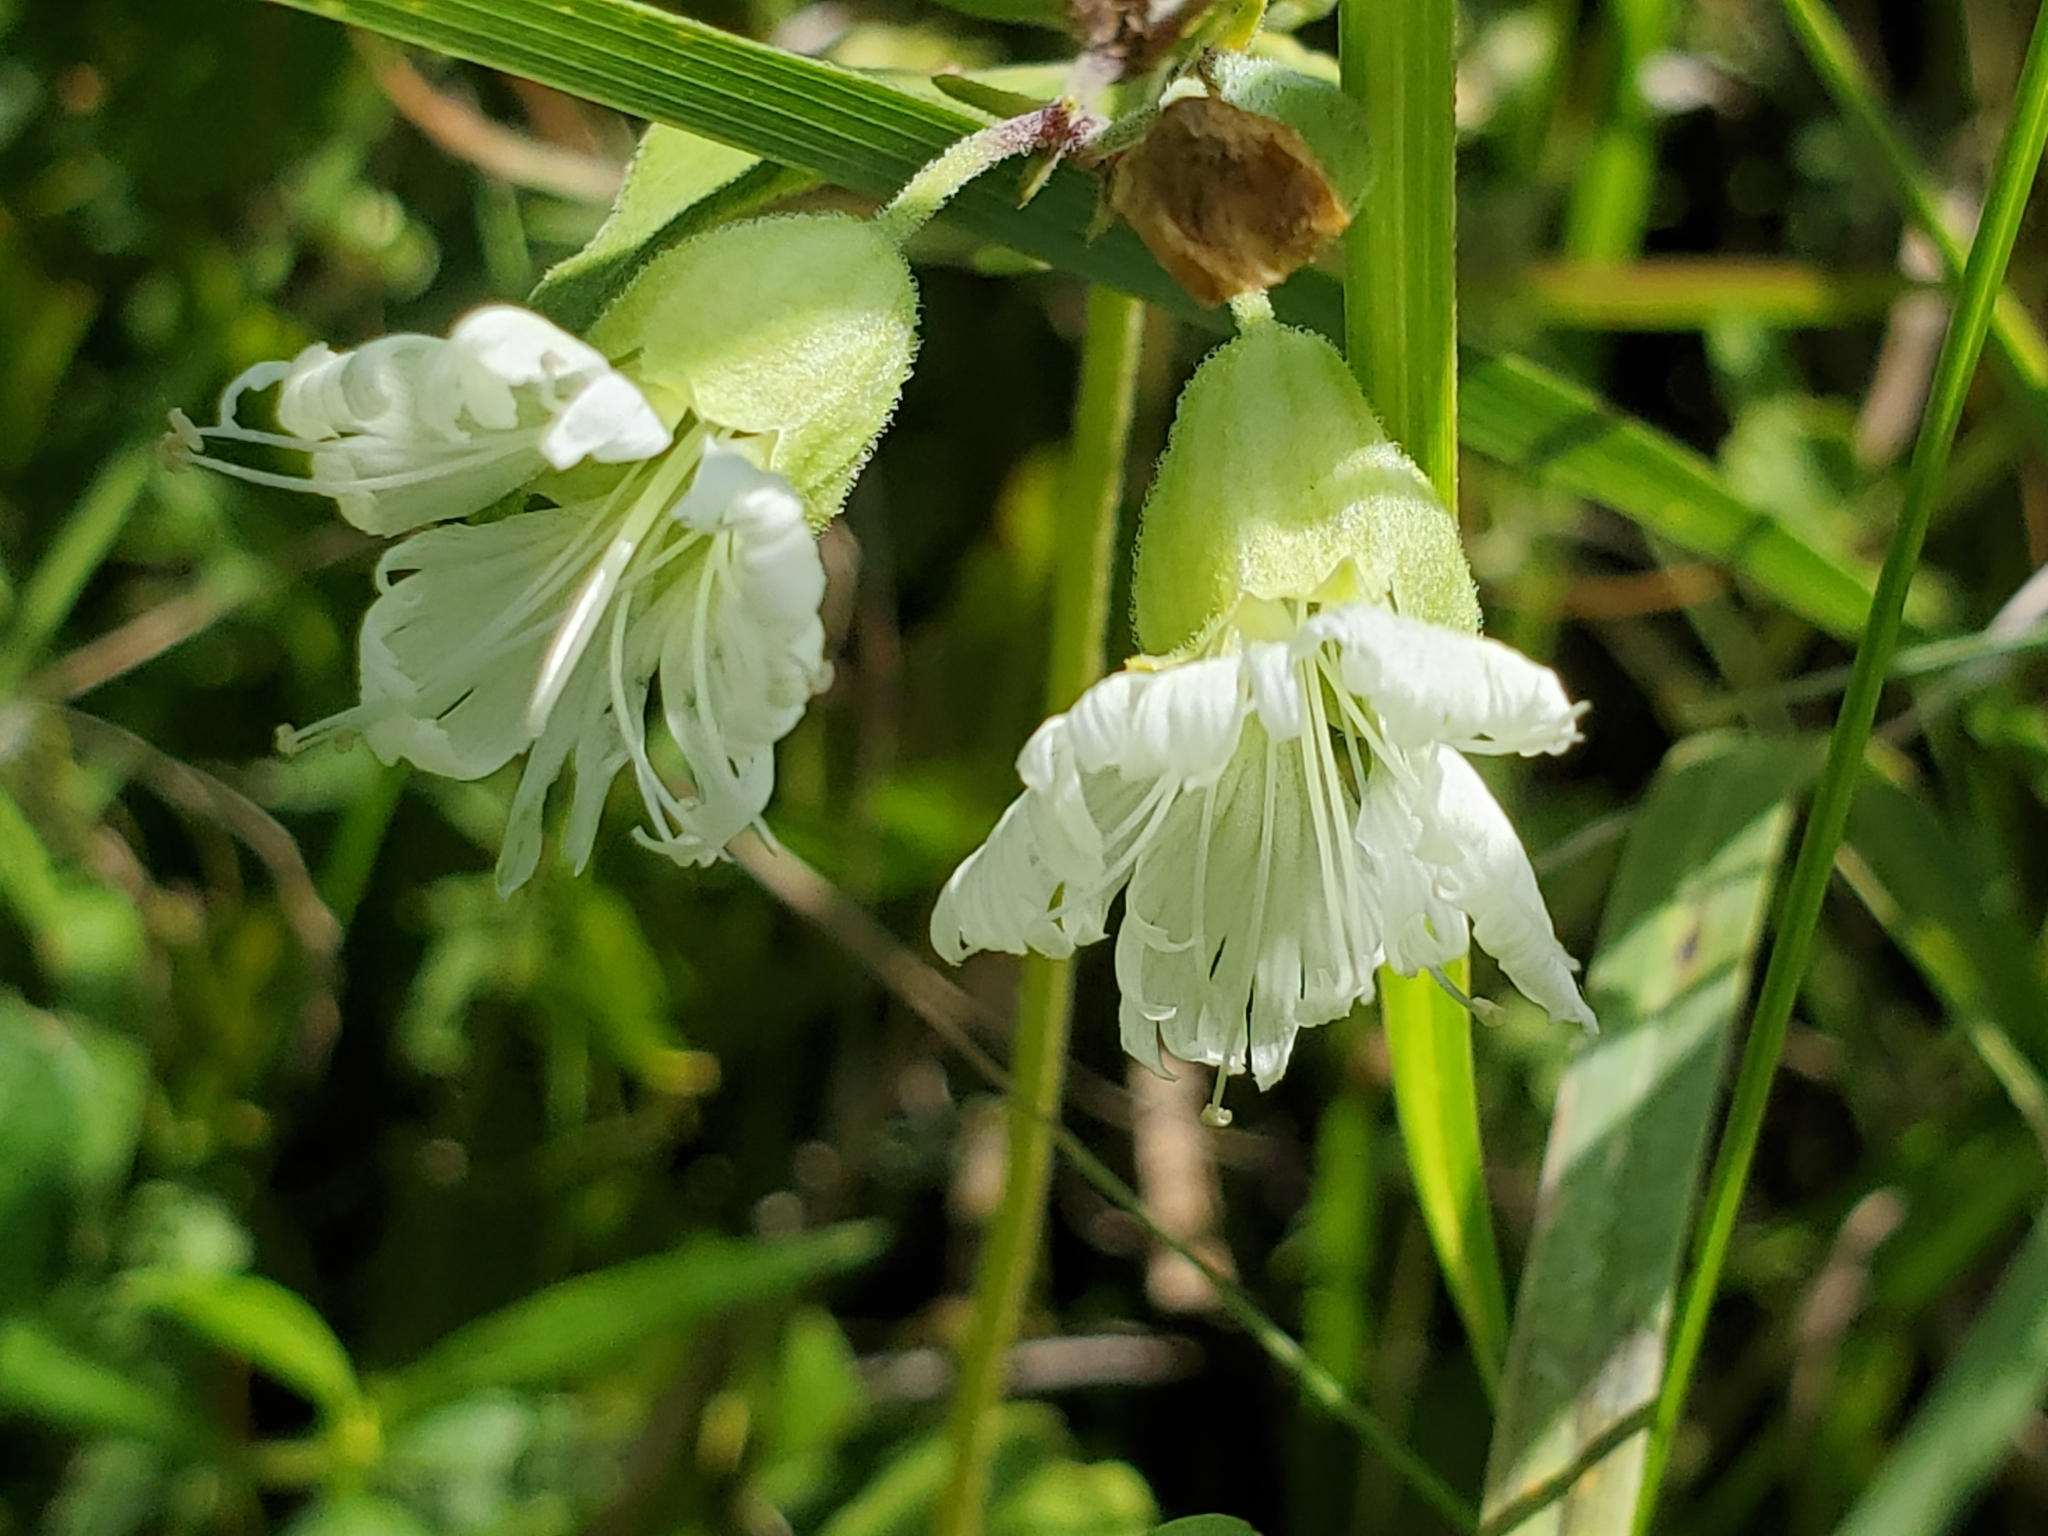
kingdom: Plantae
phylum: Tracheophyta
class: Magnoliopsida
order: Caryophyllales
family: Caryophyllaceae
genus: Silene
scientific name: Silene stellata
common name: Starry campion
